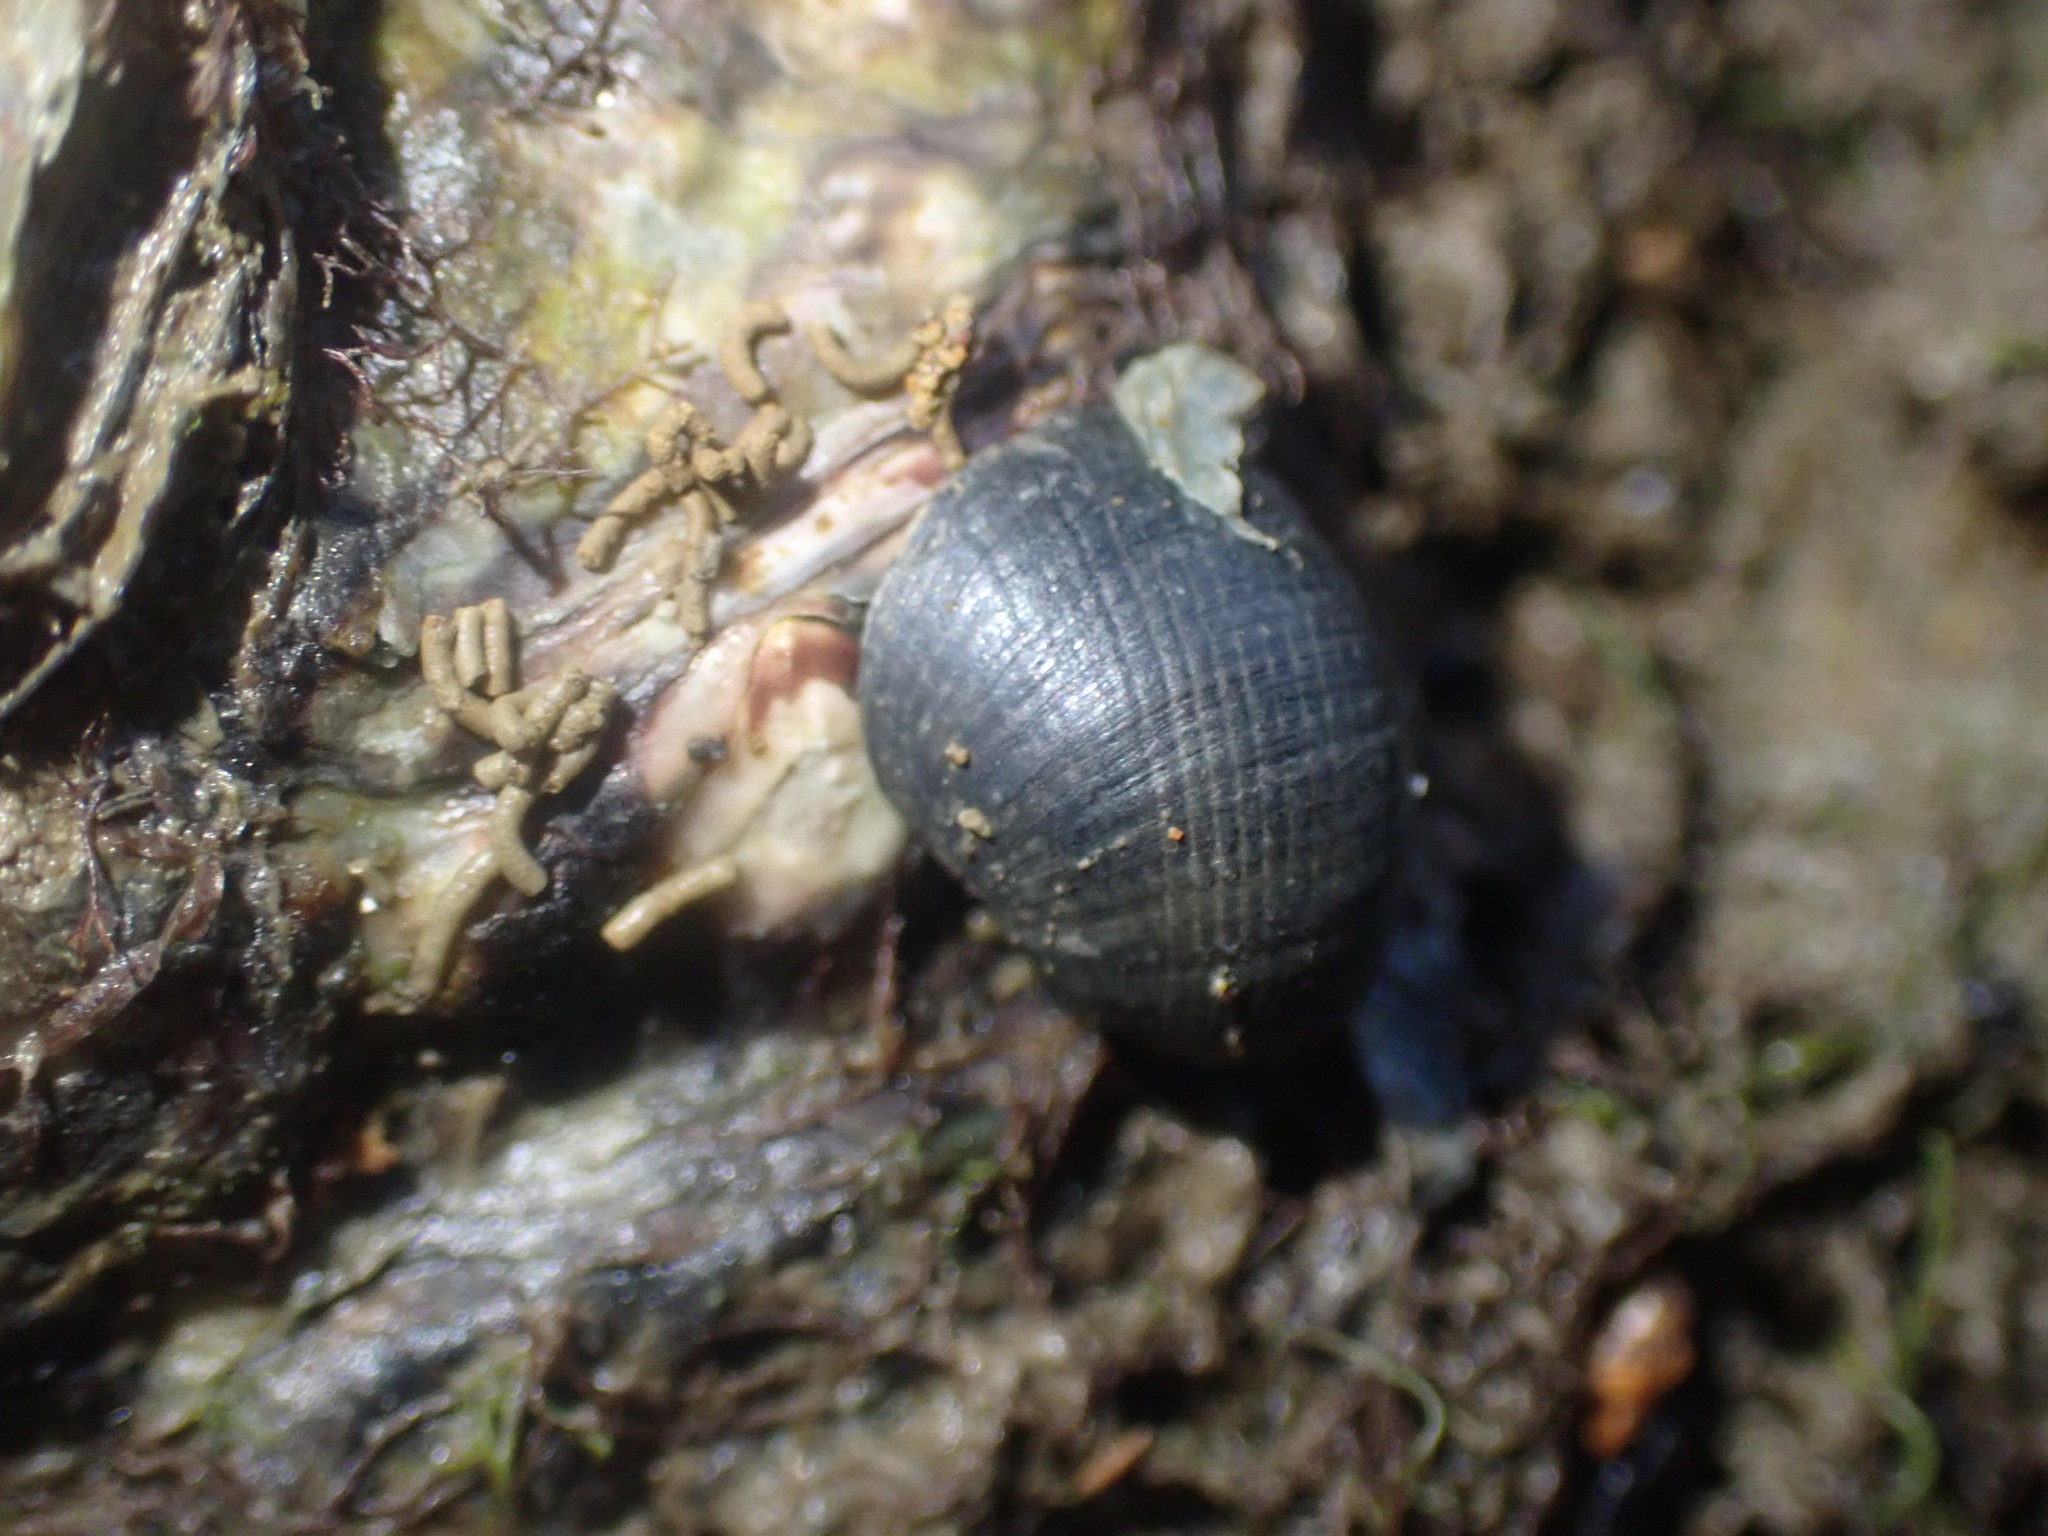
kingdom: Animalia
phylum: Mollusca
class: Gastropoda
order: Cycloneritida
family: Neritidae
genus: Nerita
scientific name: Nerita melanotragus
